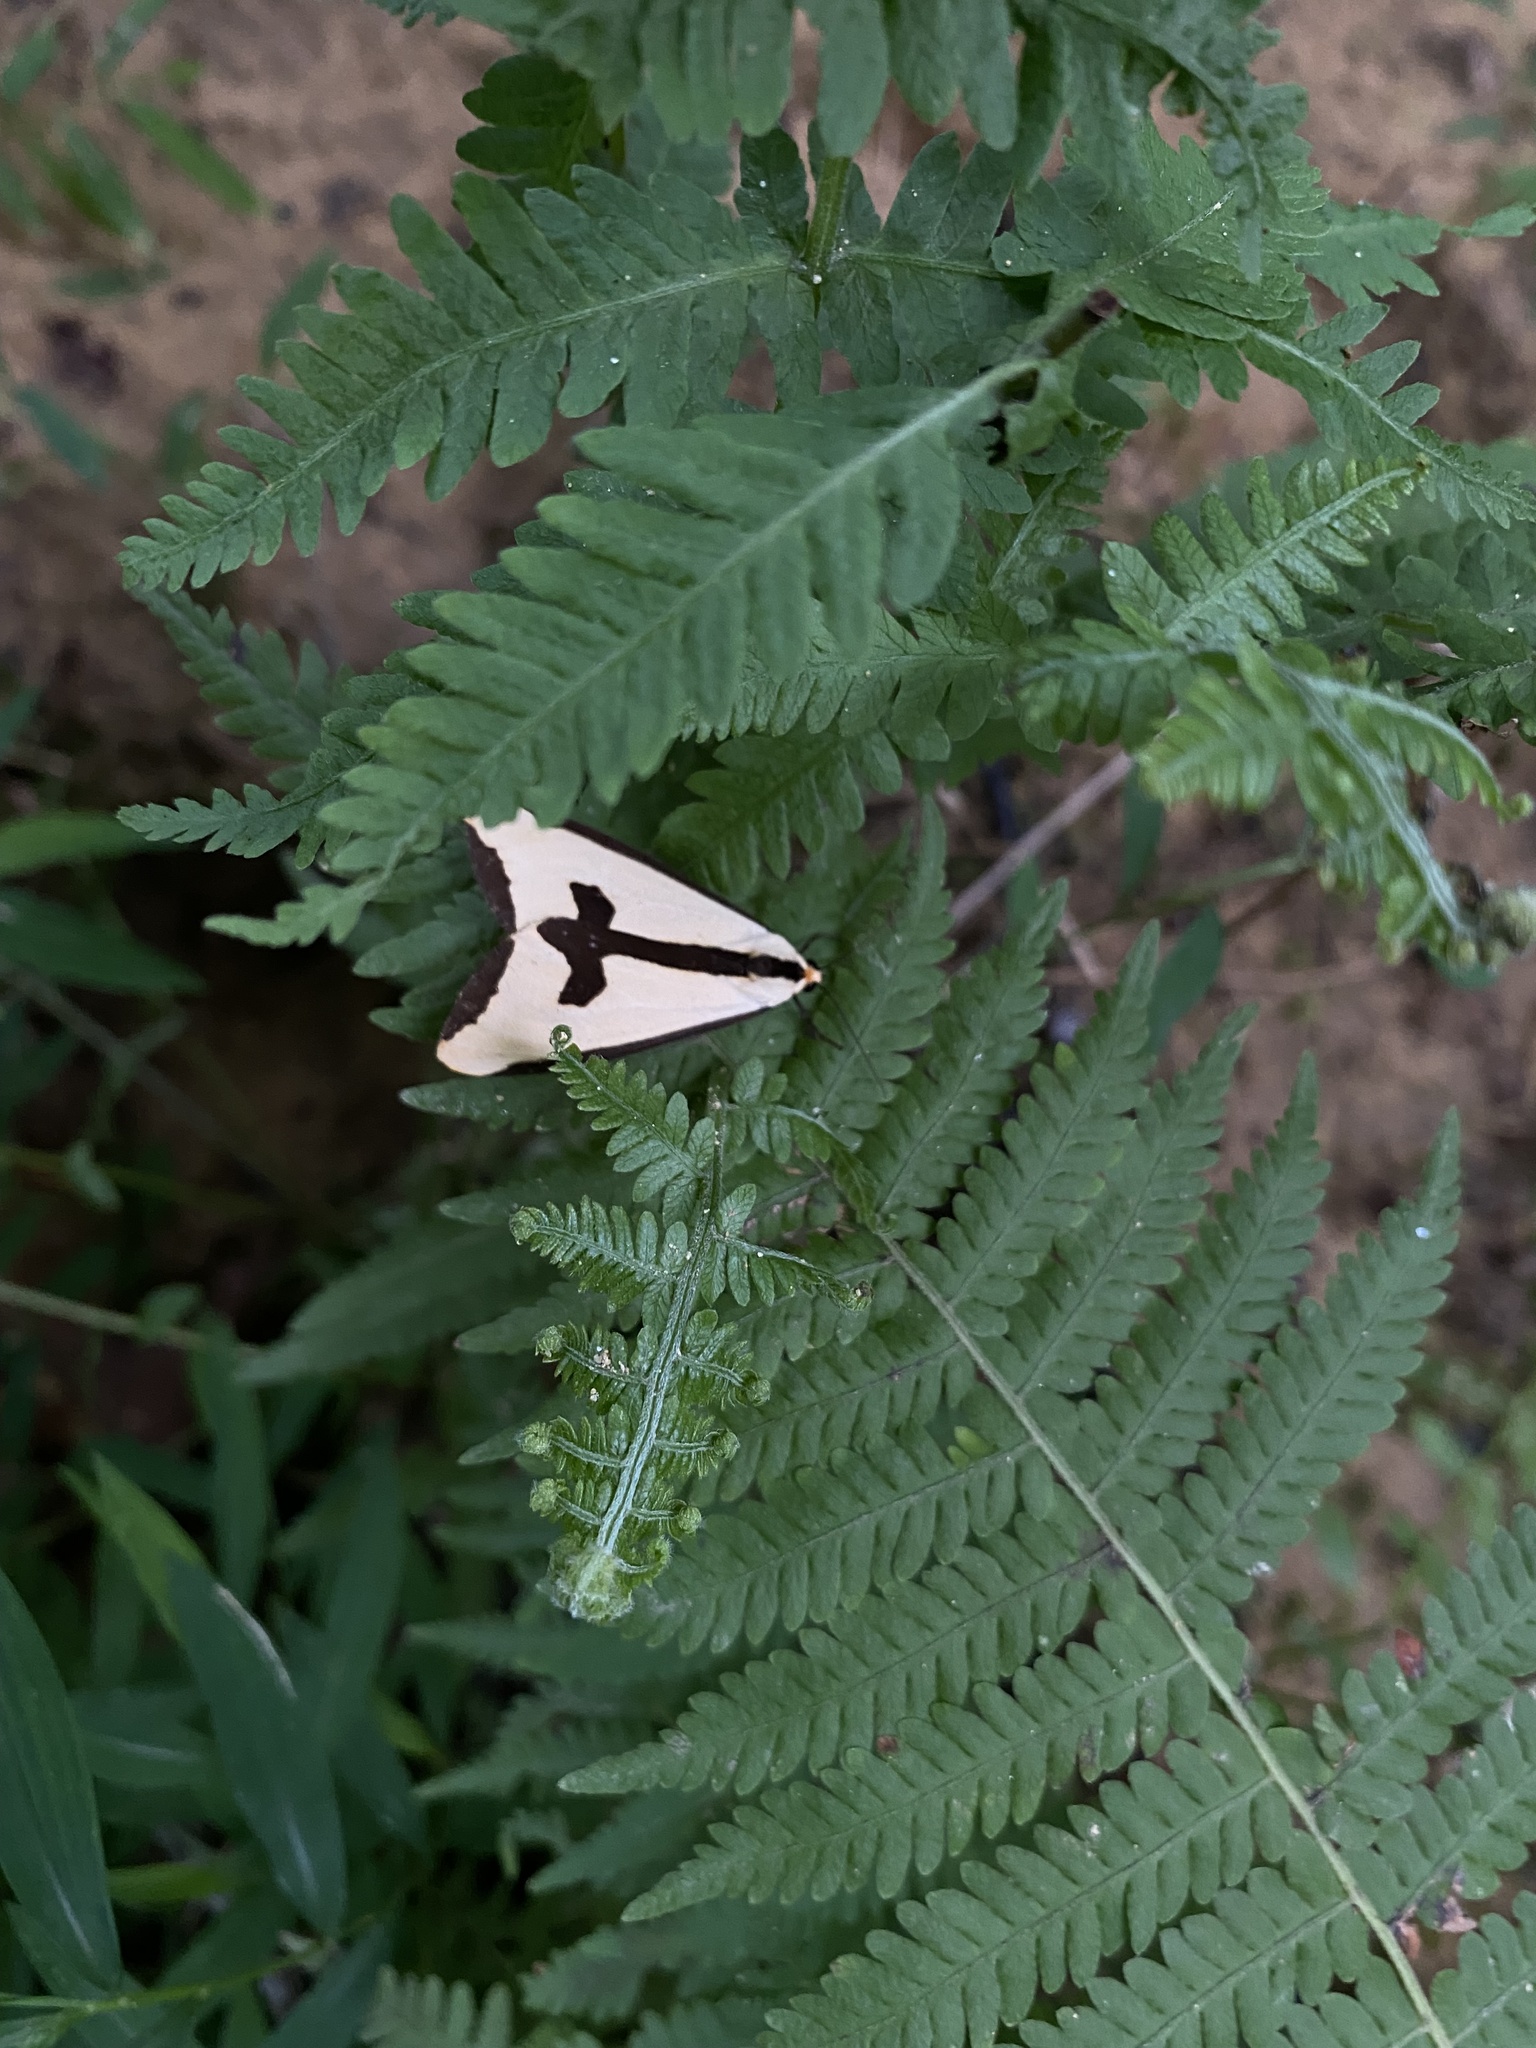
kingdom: Animalia
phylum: Arthropoda
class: Insecta
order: Lepidoptera
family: Erebidae
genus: Haploa
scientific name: Haploa clymene
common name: Clymene moth
